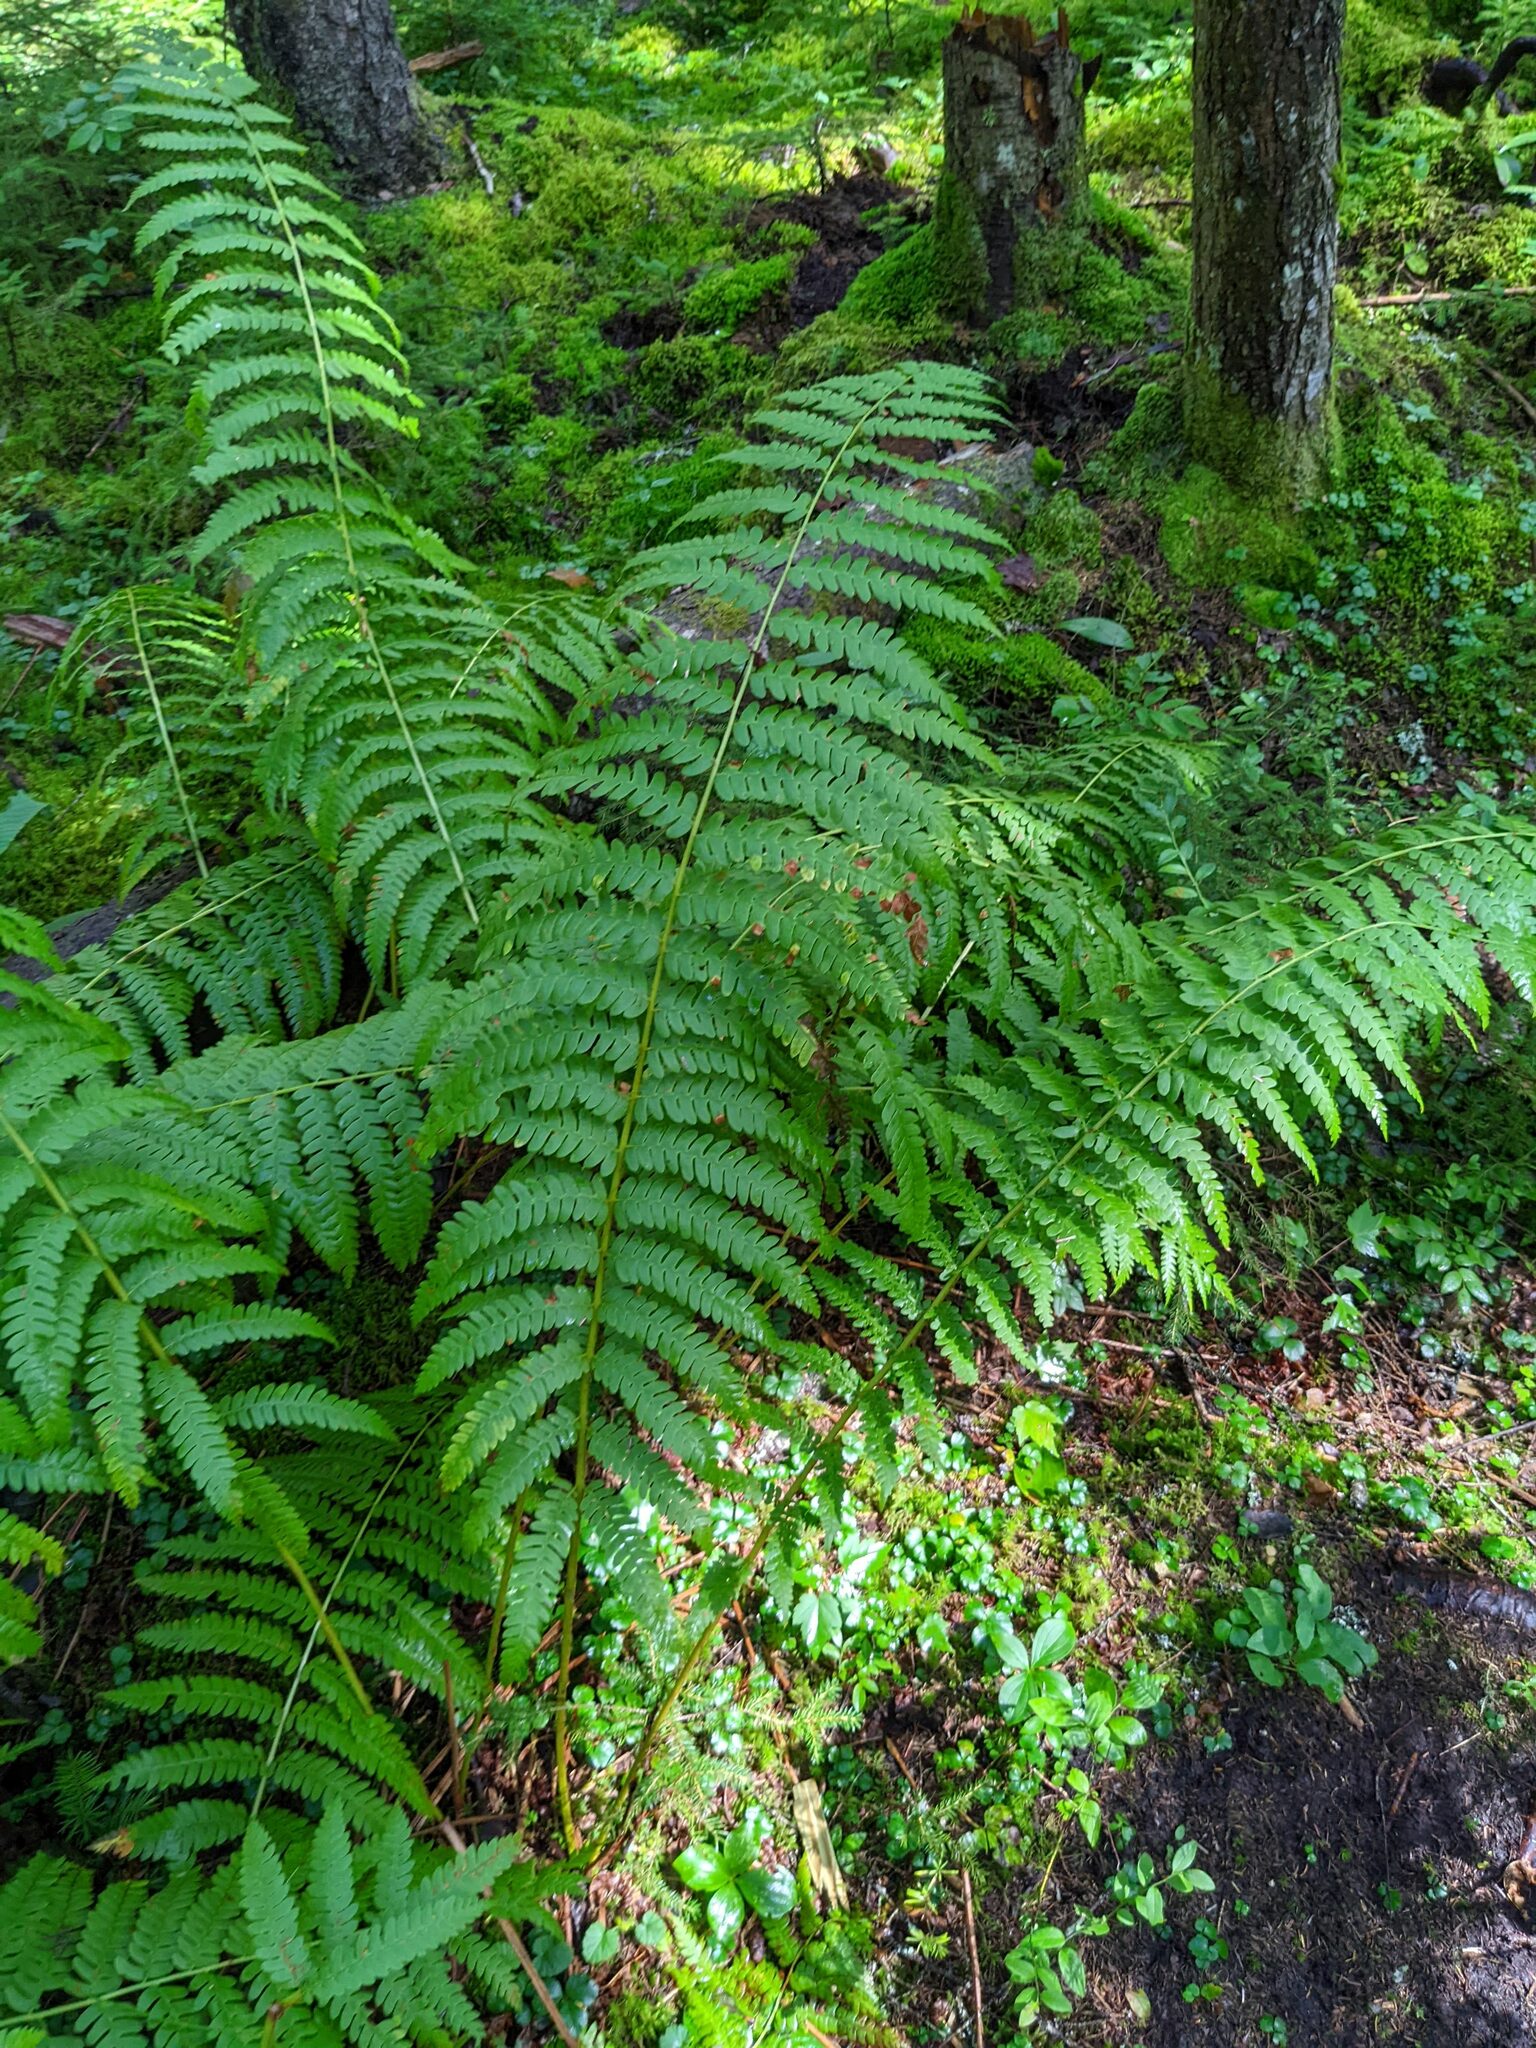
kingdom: Plantae
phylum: Tracheophyta
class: Polypodiopsida
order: Osmundales
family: Osmundaceae
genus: Osmundastrum
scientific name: Osmundastrum cinnamomeum
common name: Cinnamon fern
